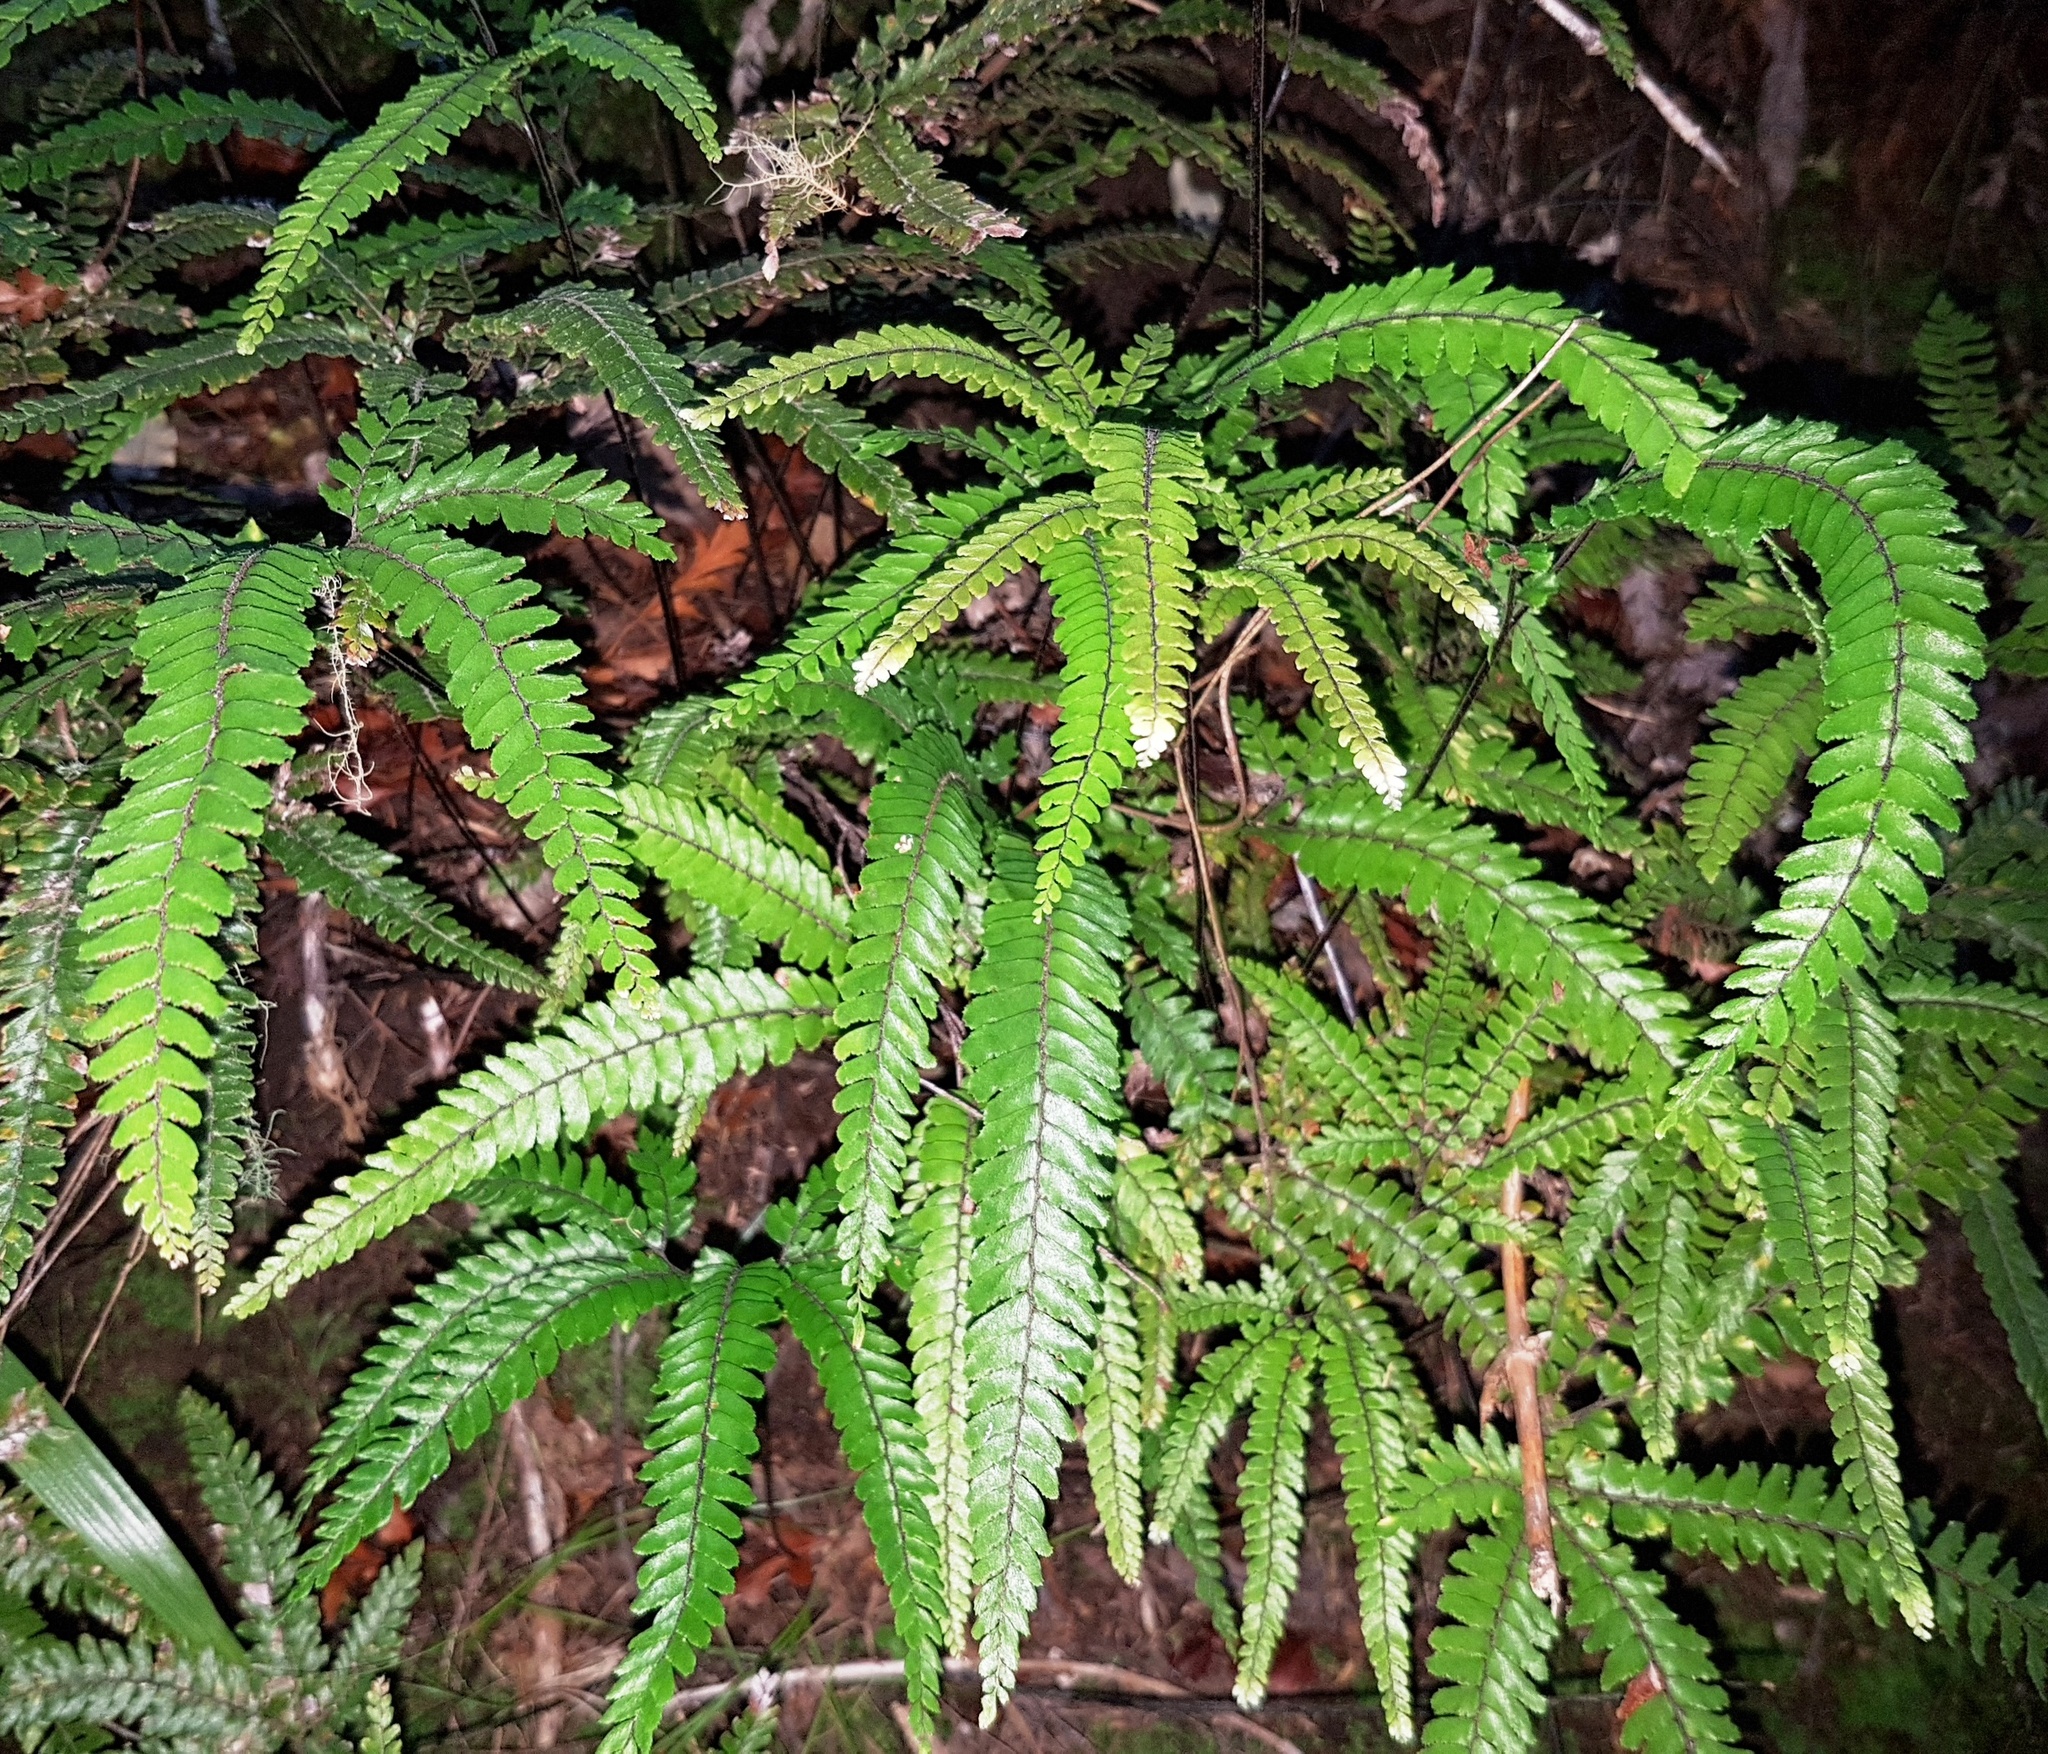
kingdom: Plantae
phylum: Tracheophyta
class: Polypodiopsida
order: Polypodiales
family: Pteridaceae
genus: Adiantum
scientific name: Adiantum hispidulum
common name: Rough maidenhair
